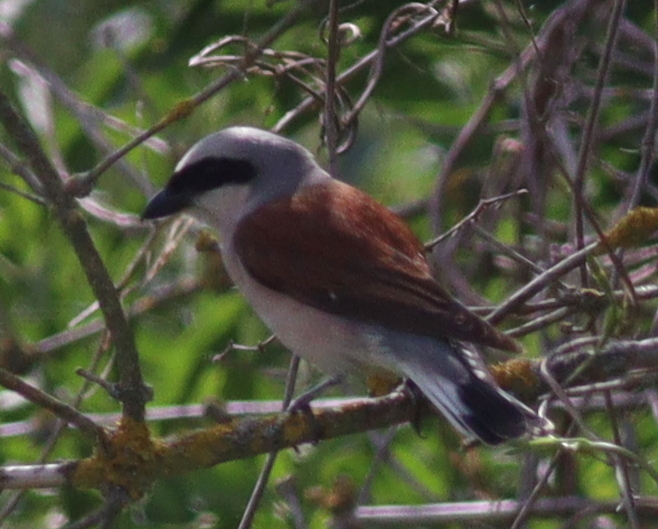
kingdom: Animalia
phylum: Chordata
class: Aves
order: Passeriformes
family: Laniidae
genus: Lanius
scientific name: Lanius collurio
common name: Red-backed shrike
